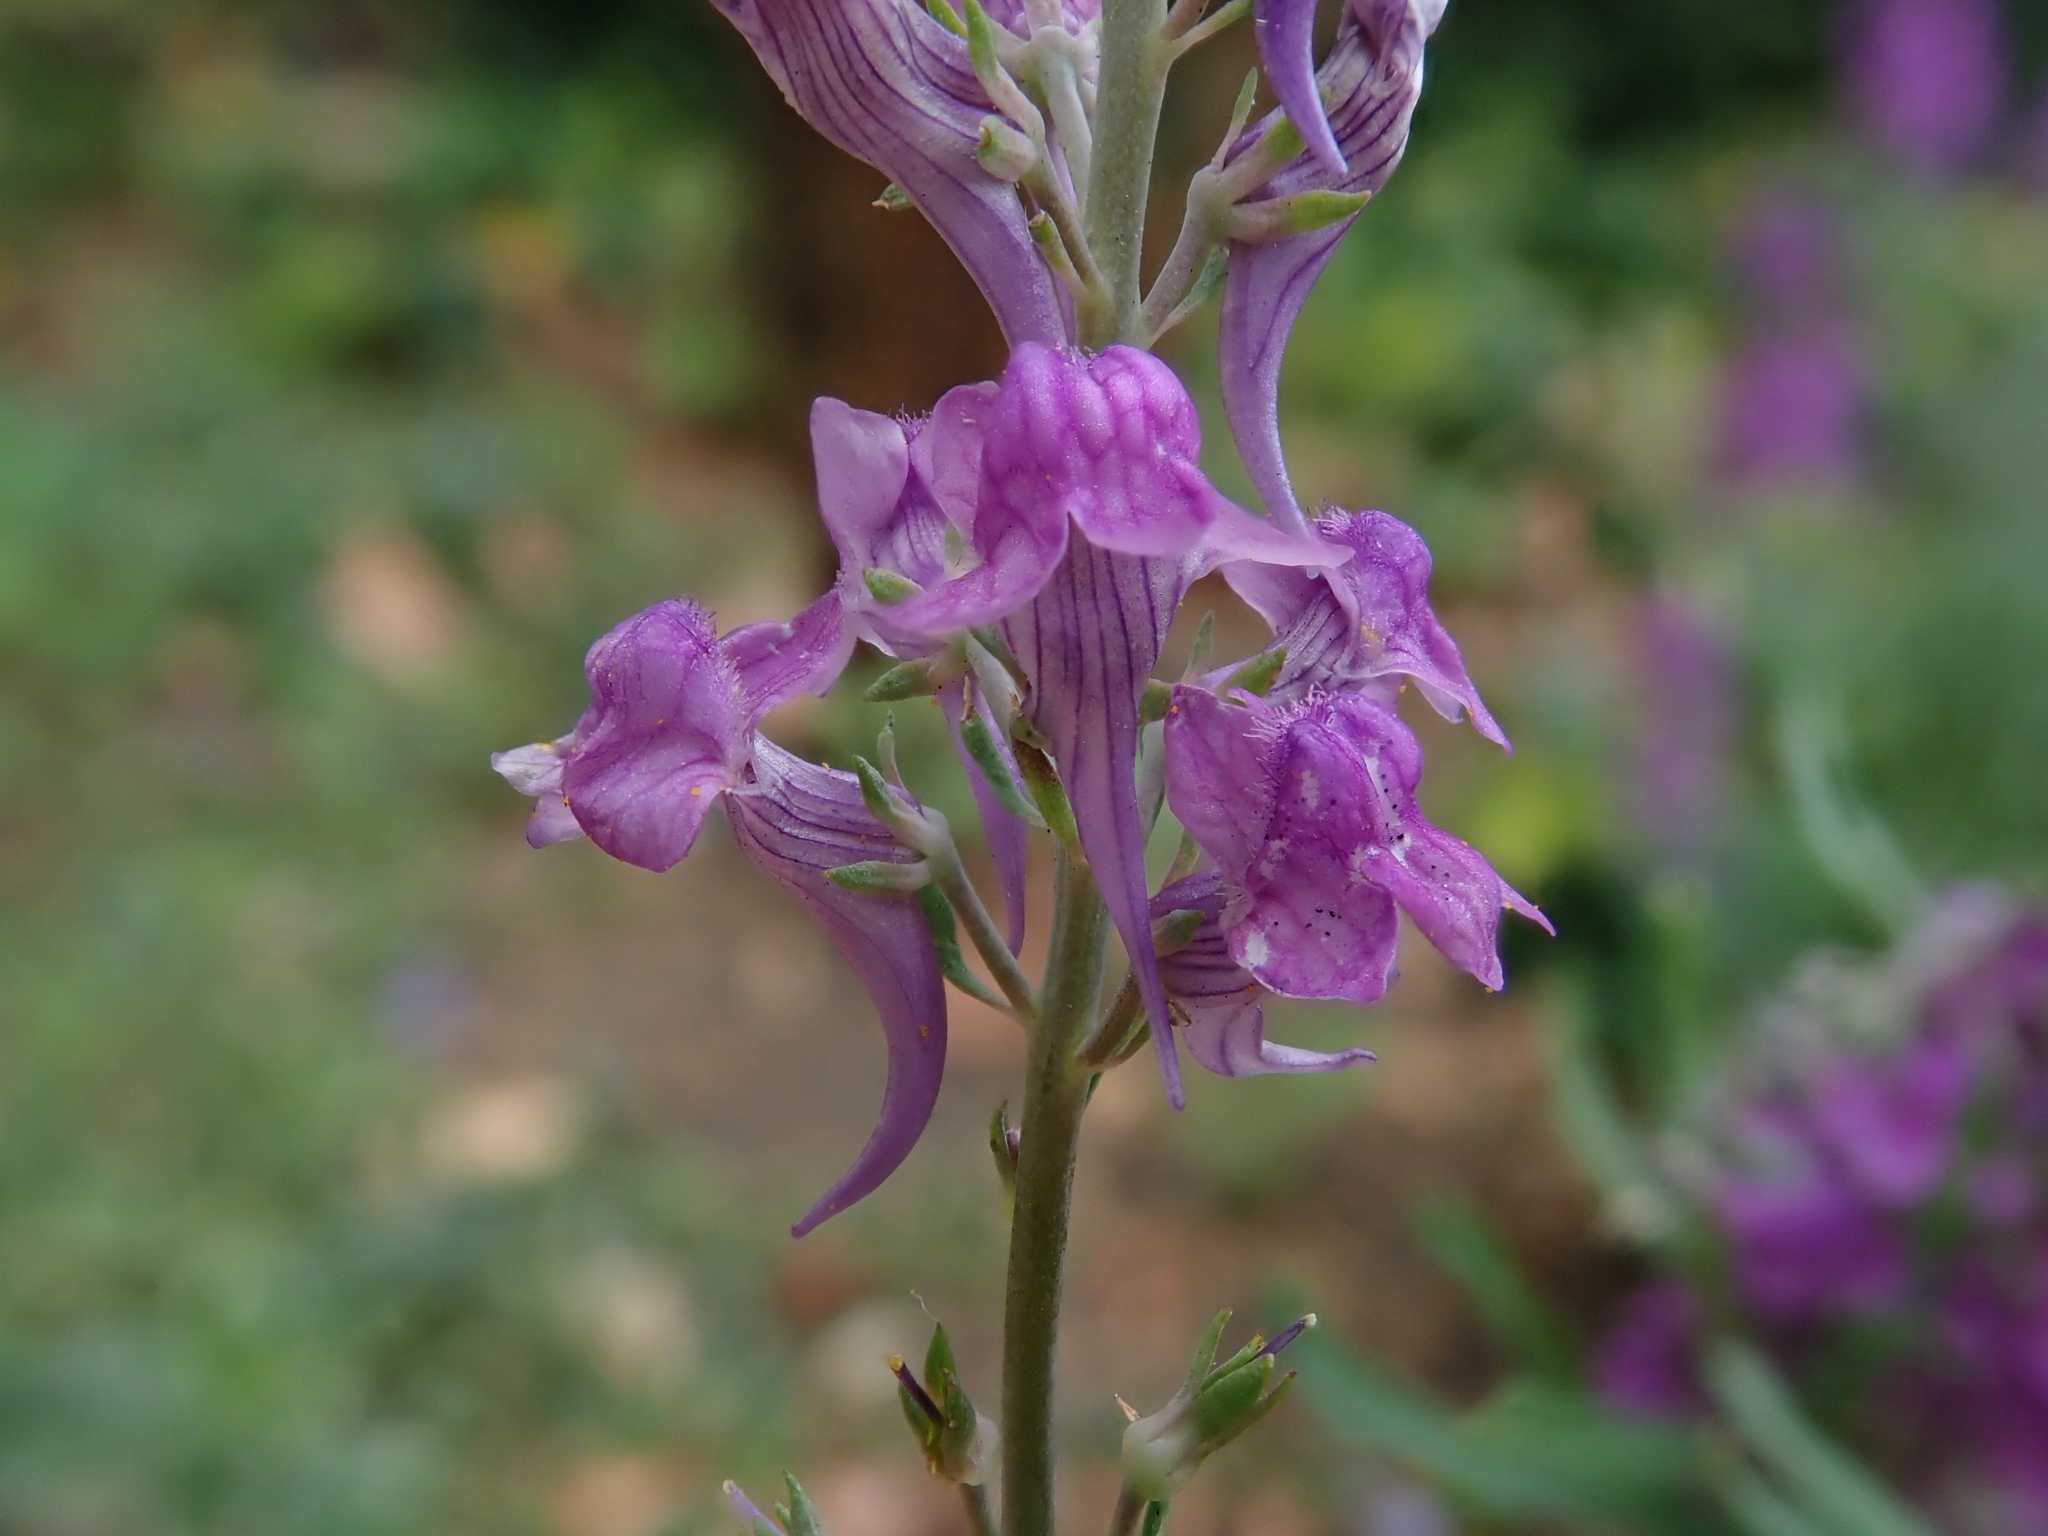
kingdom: Plantae
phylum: Tracheophyta
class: Magnoliopsida
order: Lamiales
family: Plantaginaceae
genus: Linaria
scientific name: Linaria purpurea
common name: Purple toadflax
